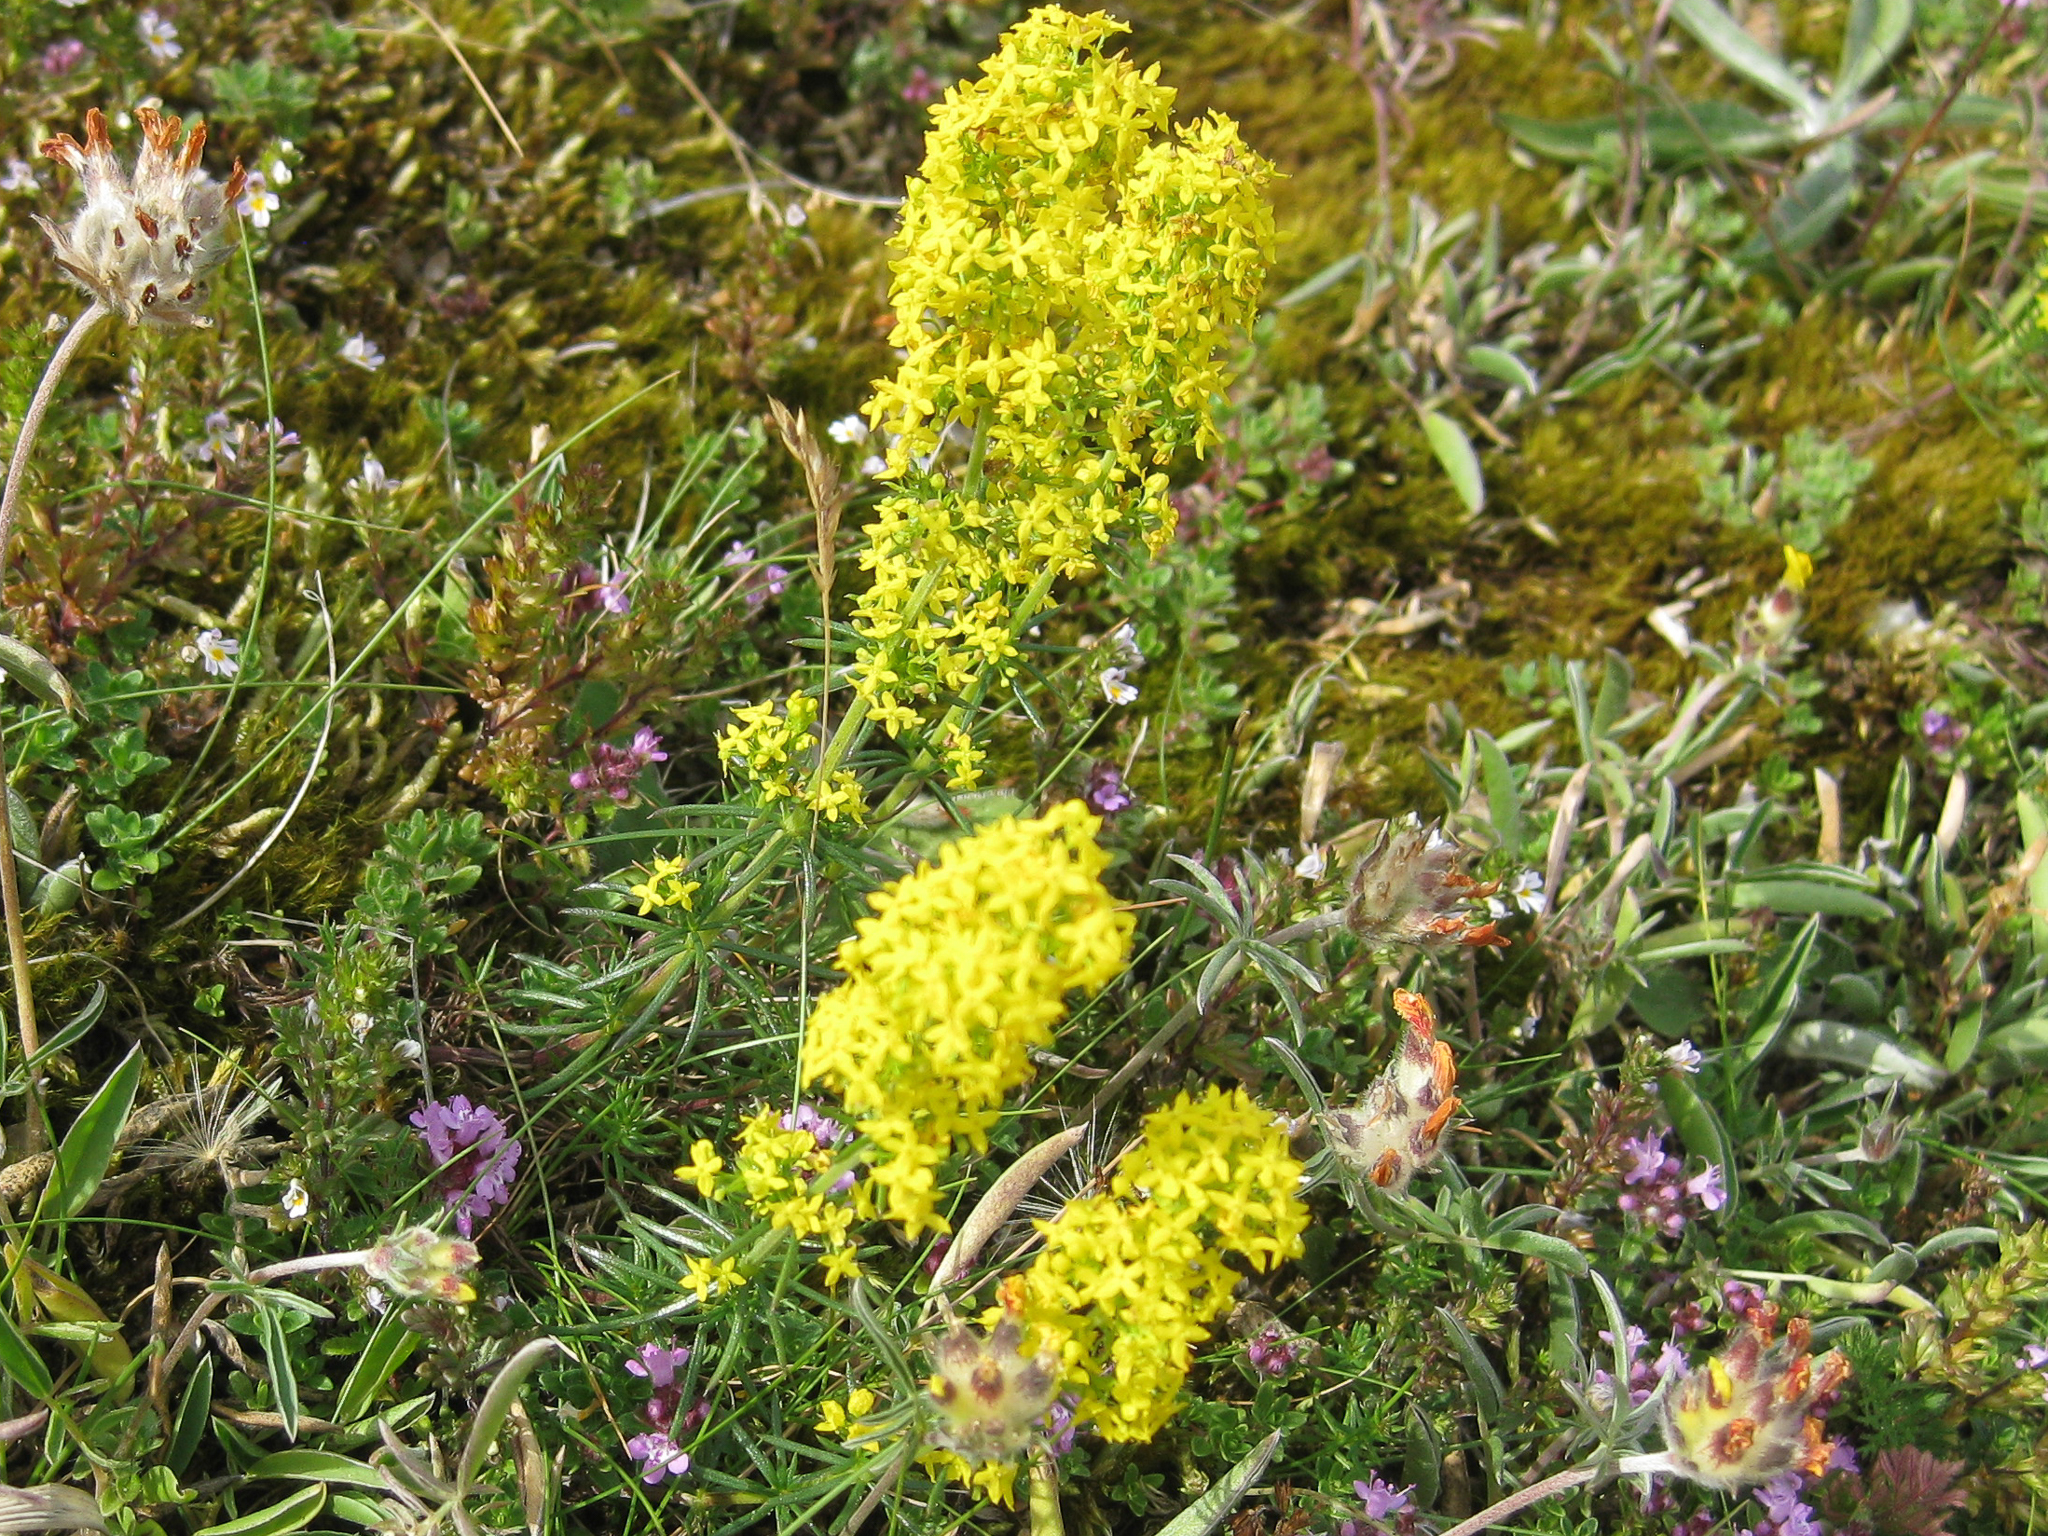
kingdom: Plantae
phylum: Tracheophyta
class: Magnoliopsida
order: Gentianales
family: Rubiaceae
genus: Galium
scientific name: Galium verum
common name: Lady's bedstraw
